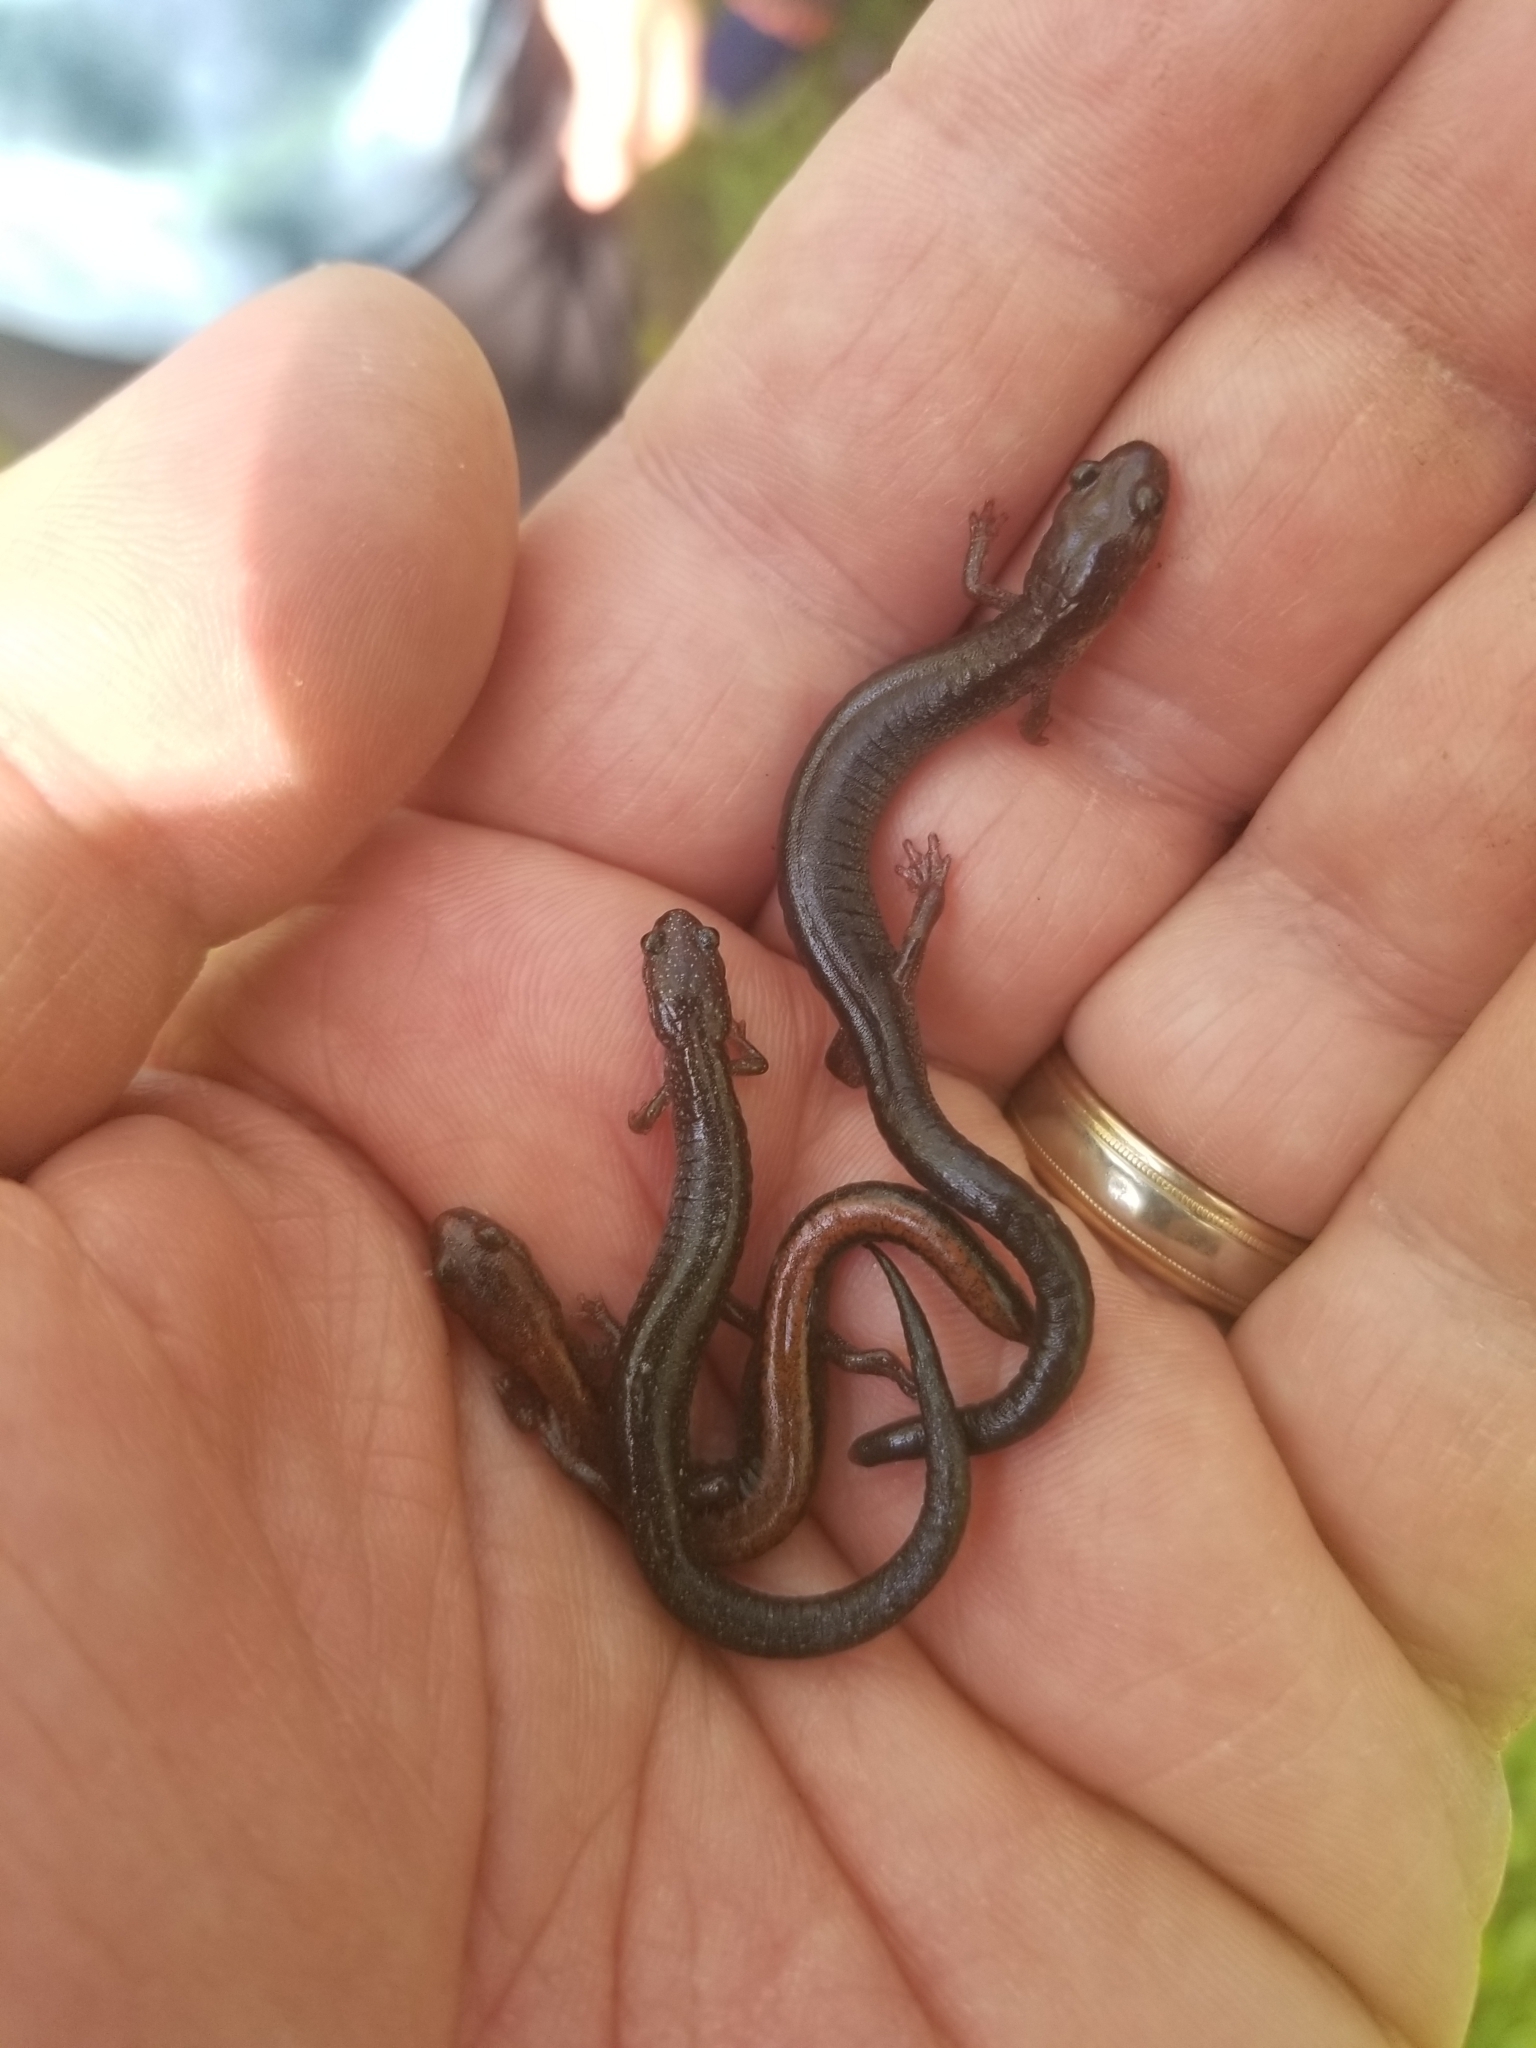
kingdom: Animalia
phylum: Chordata
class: Amphibia
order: Caudata
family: Plethodontidae
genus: Plethodon
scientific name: Plethodon cinereus
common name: Redback salamander
